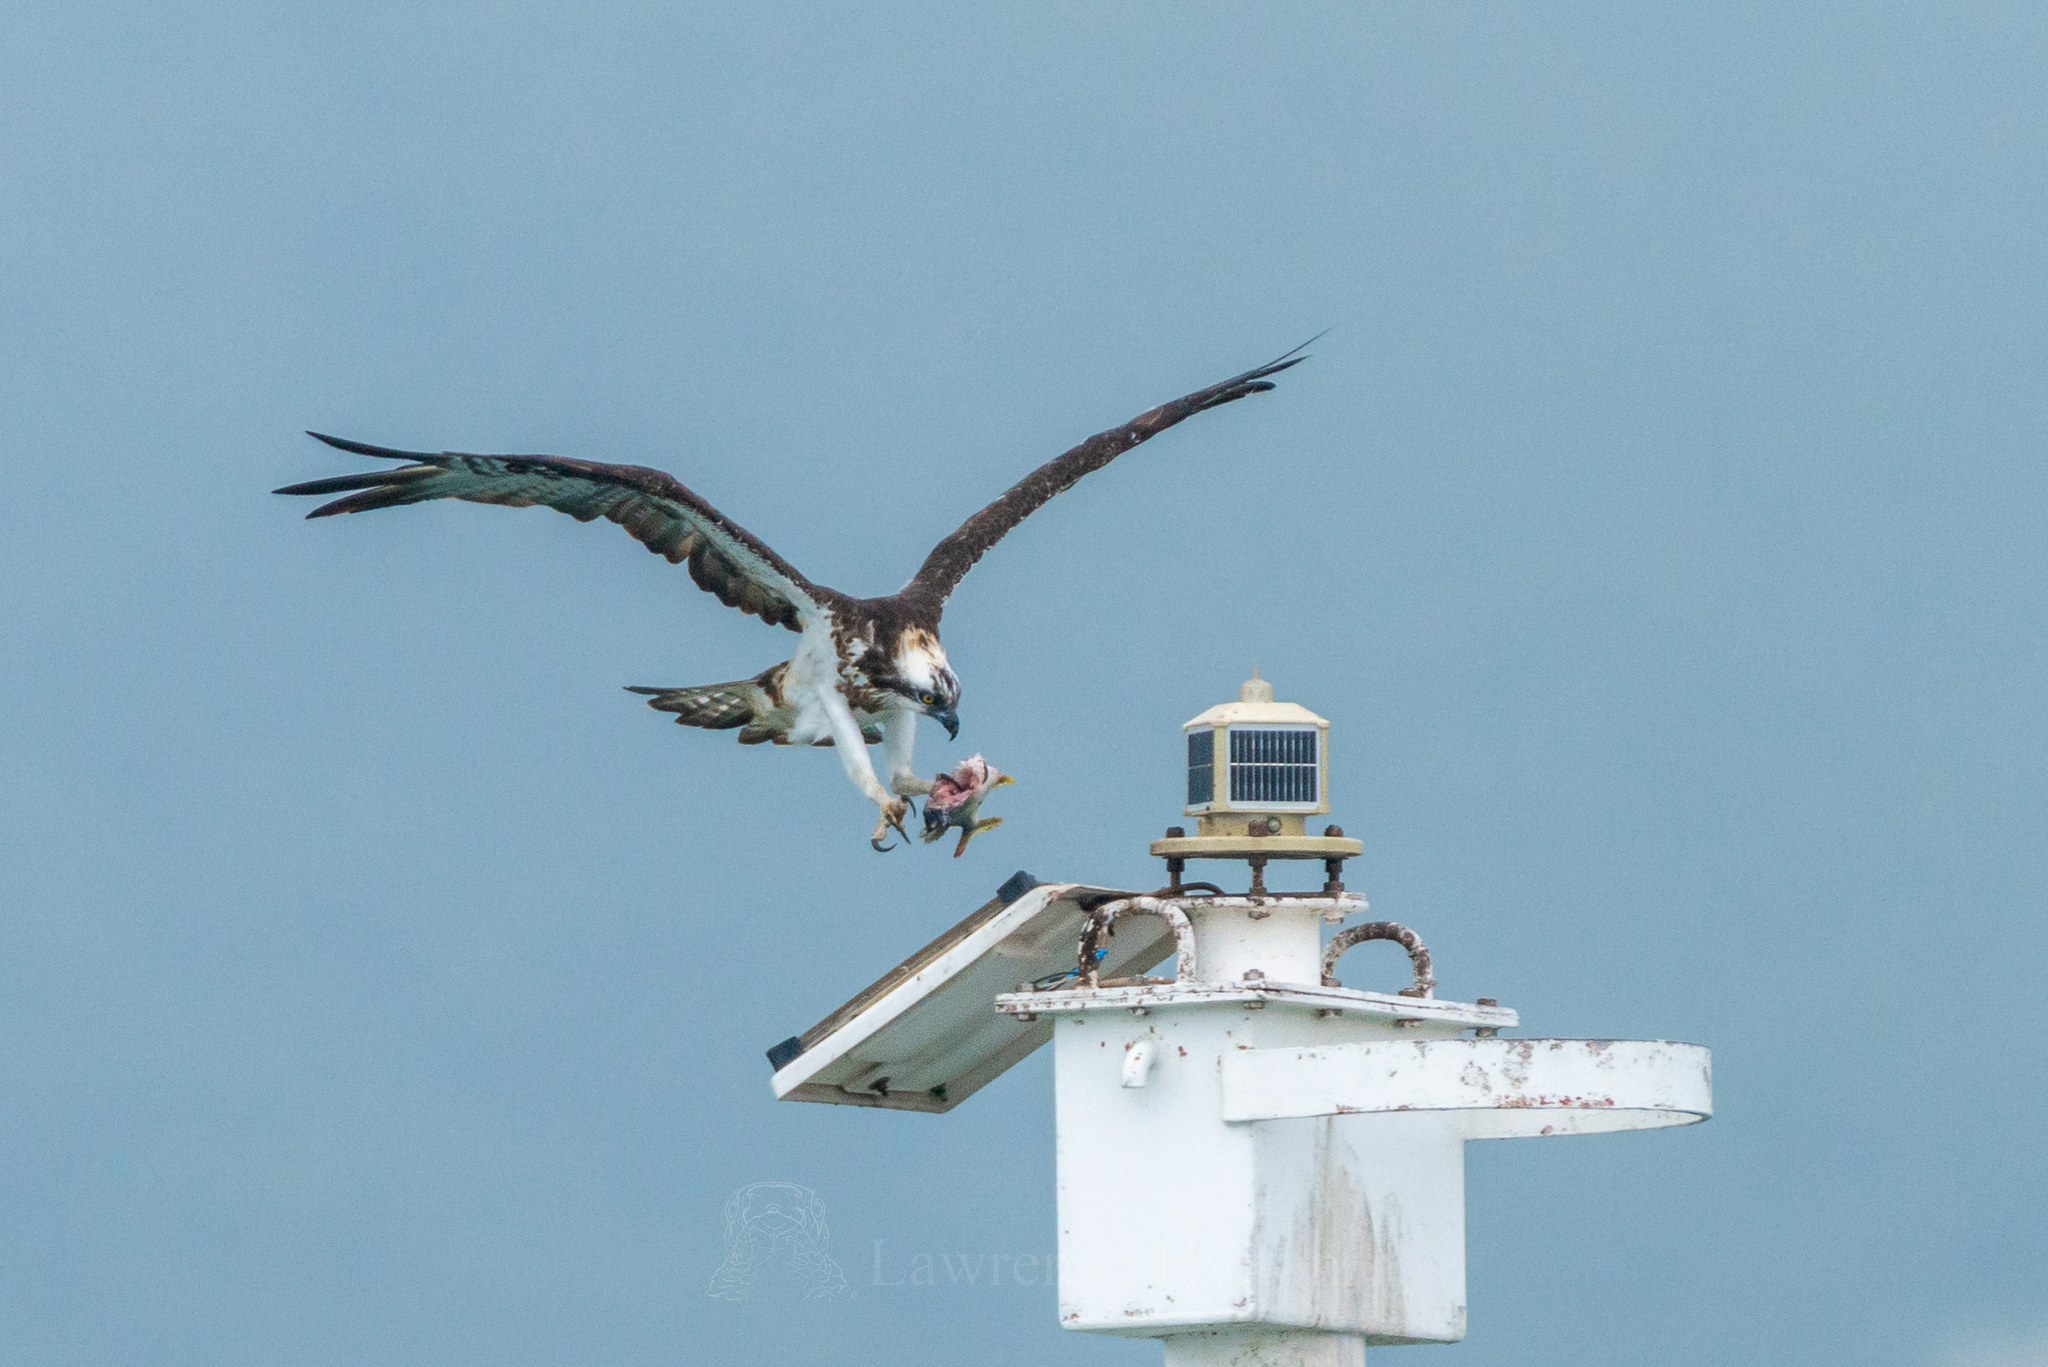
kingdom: Animalia
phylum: Chordata
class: Aves
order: Accipitriformes
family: Pandionidae
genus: Pandion
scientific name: Pandion haliaetus
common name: Osprey
